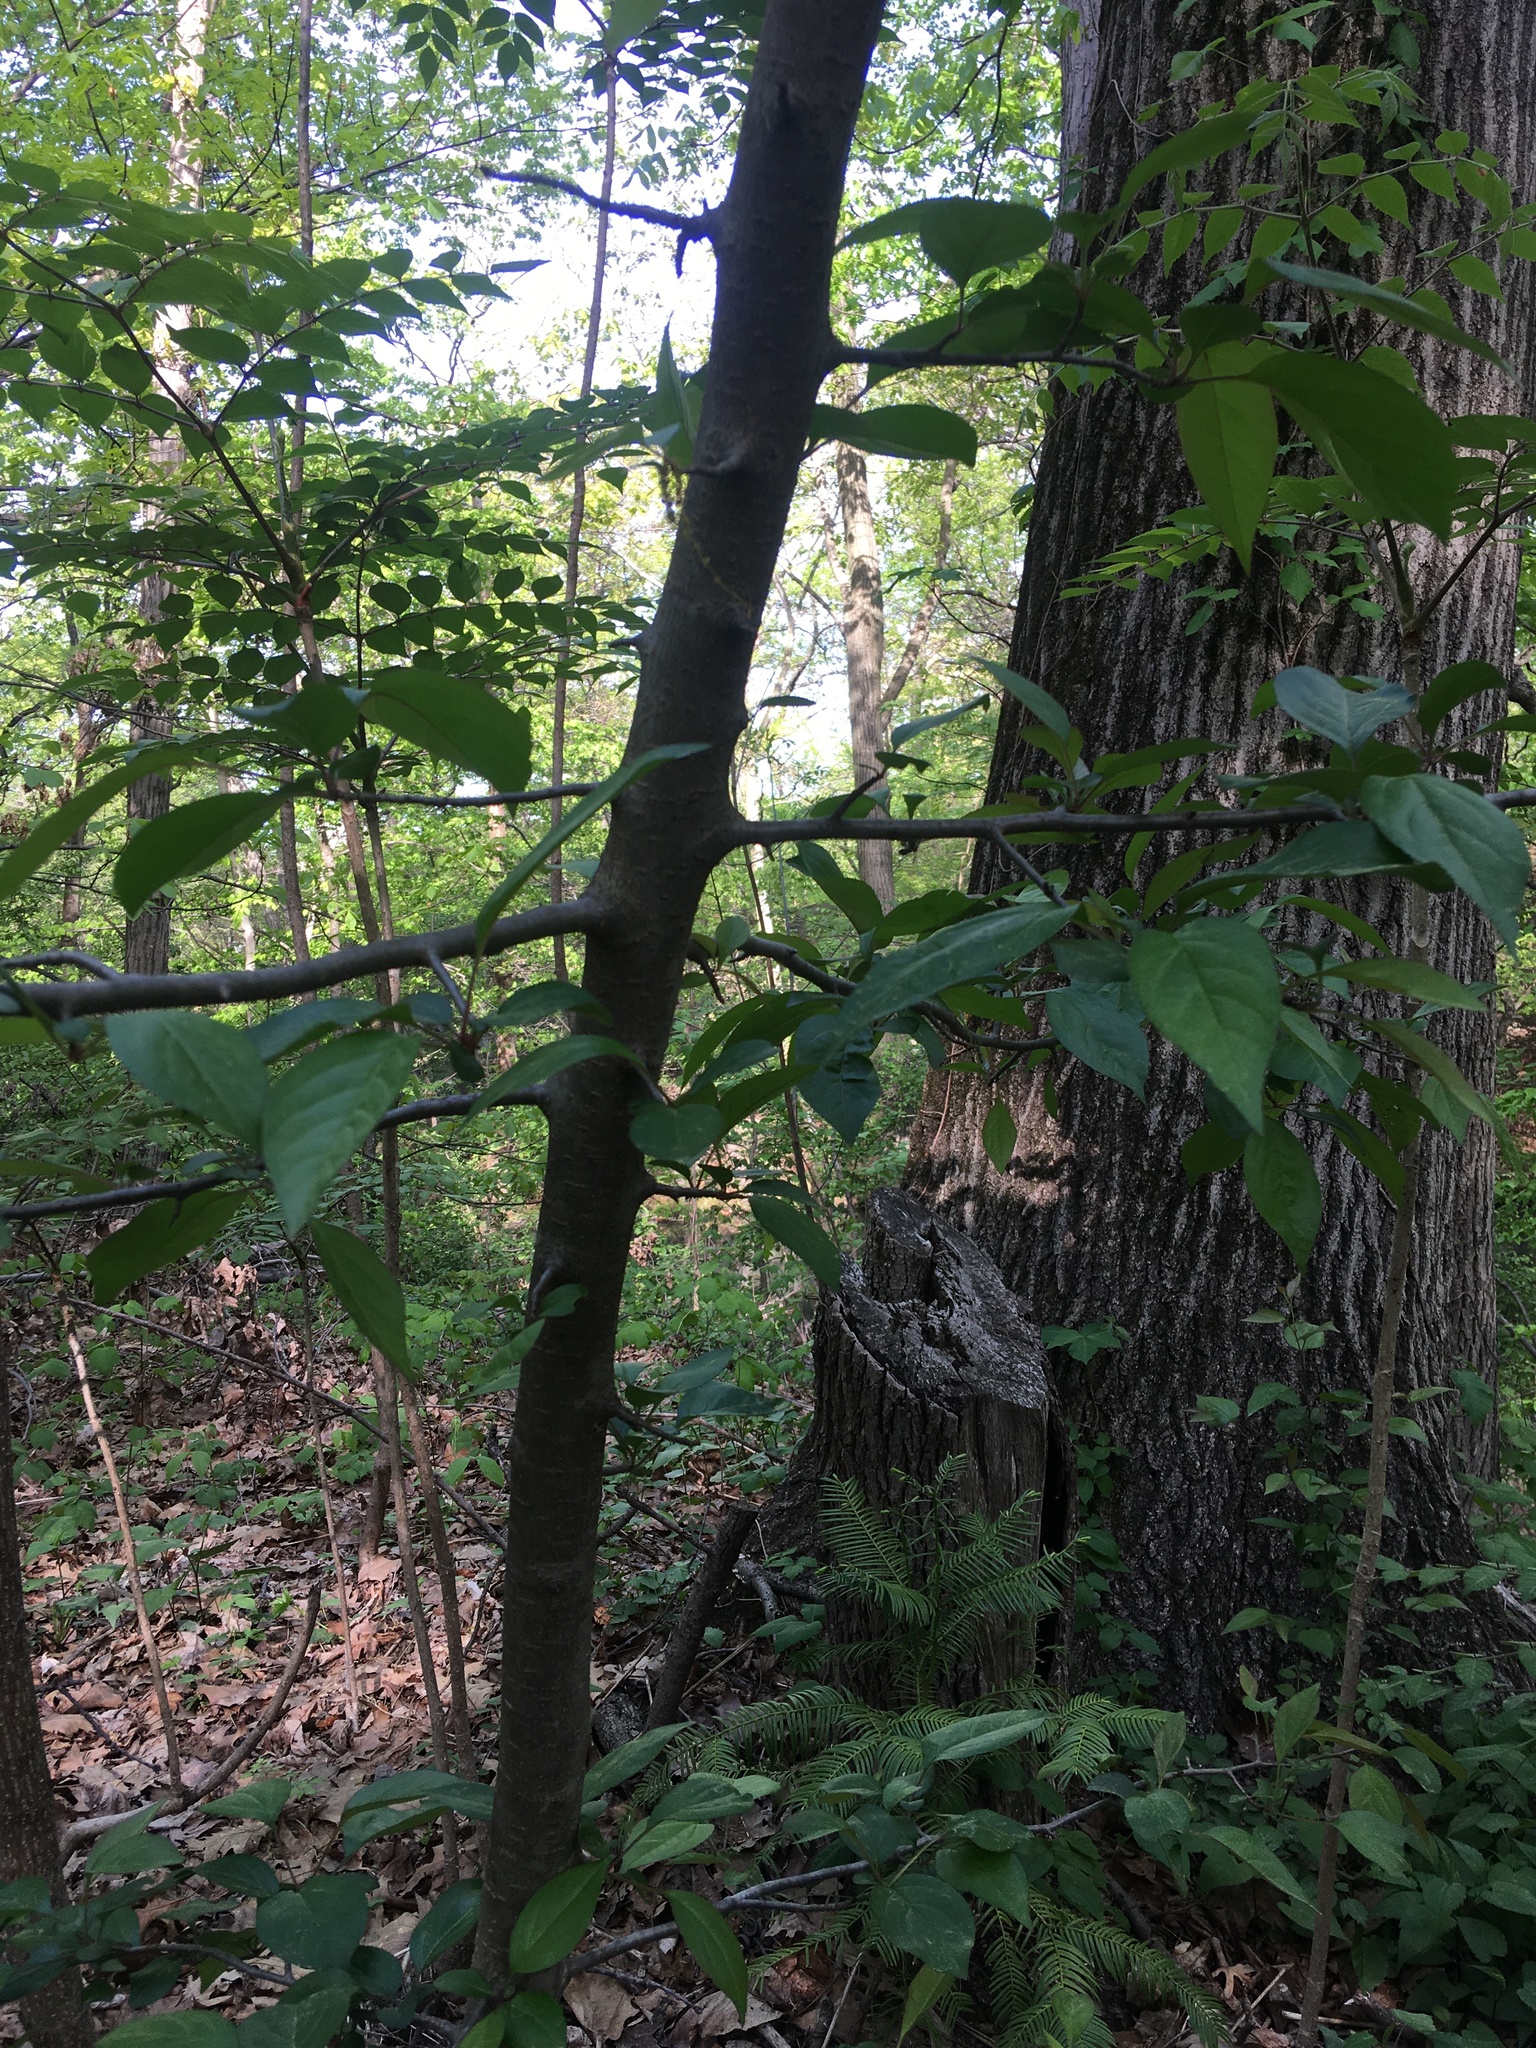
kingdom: Plantae
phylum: Tracheophyta
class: Magnoliopsida
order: Rosales
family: Rosaceae
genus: Malus
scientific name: Malus hupehensis
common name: Chinese crab apple
